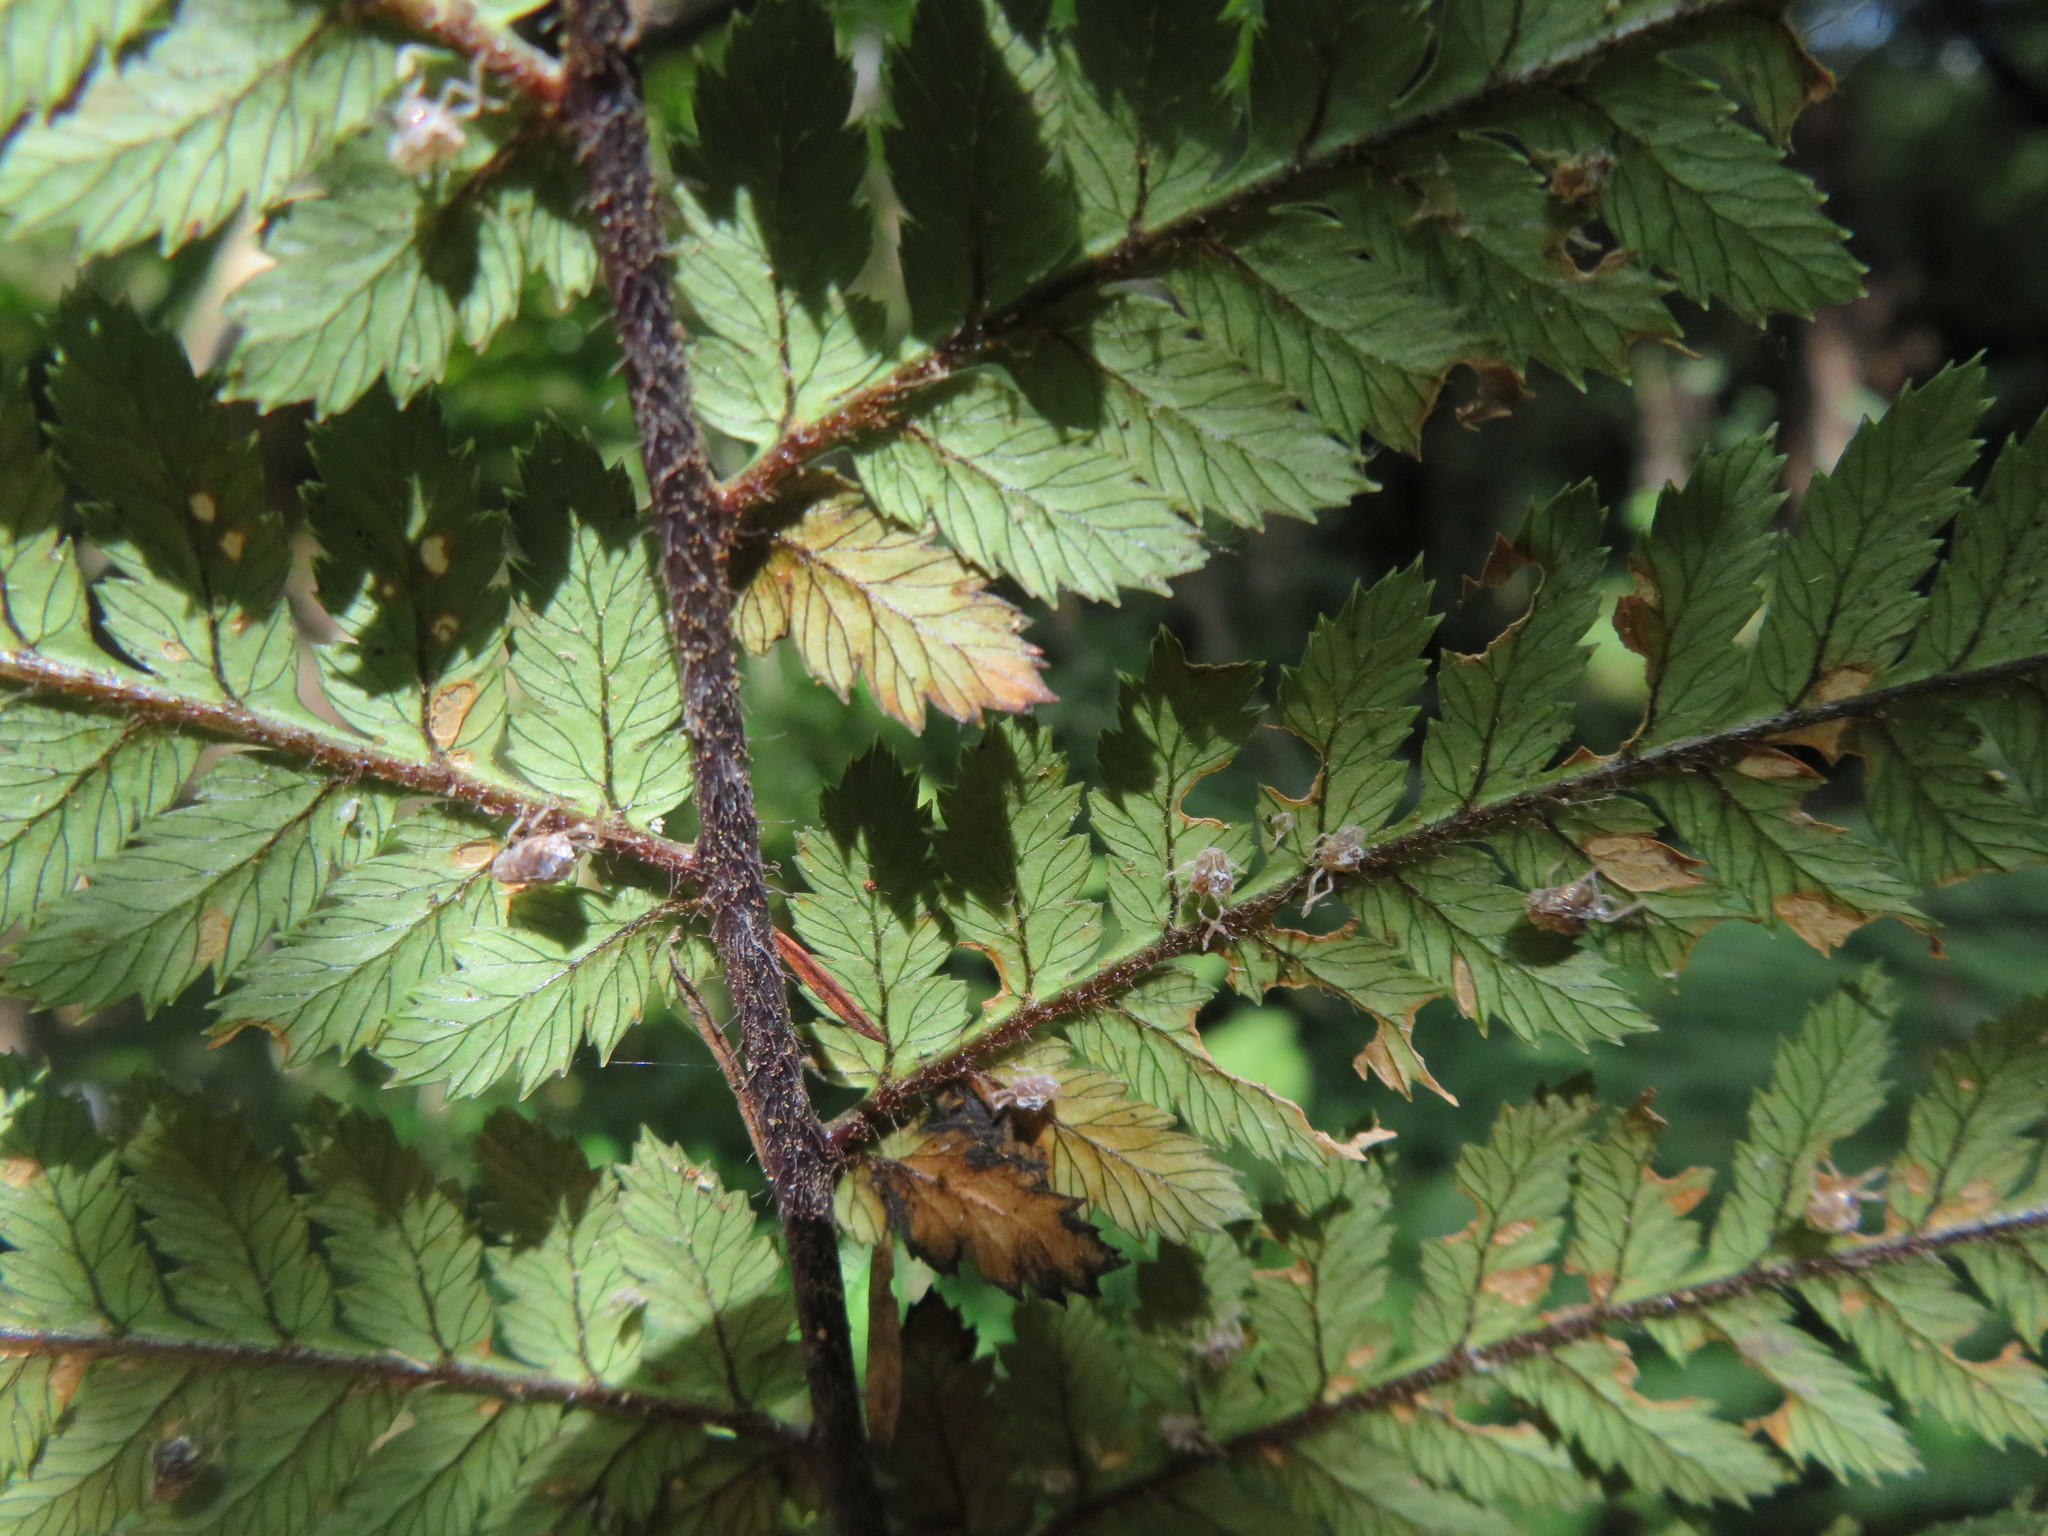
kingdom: Animalia
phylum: Arthropoda
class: Insecta
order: Hemiptera
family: Ricaniidae
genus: Scolypopa
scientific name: Scolypopa australis
